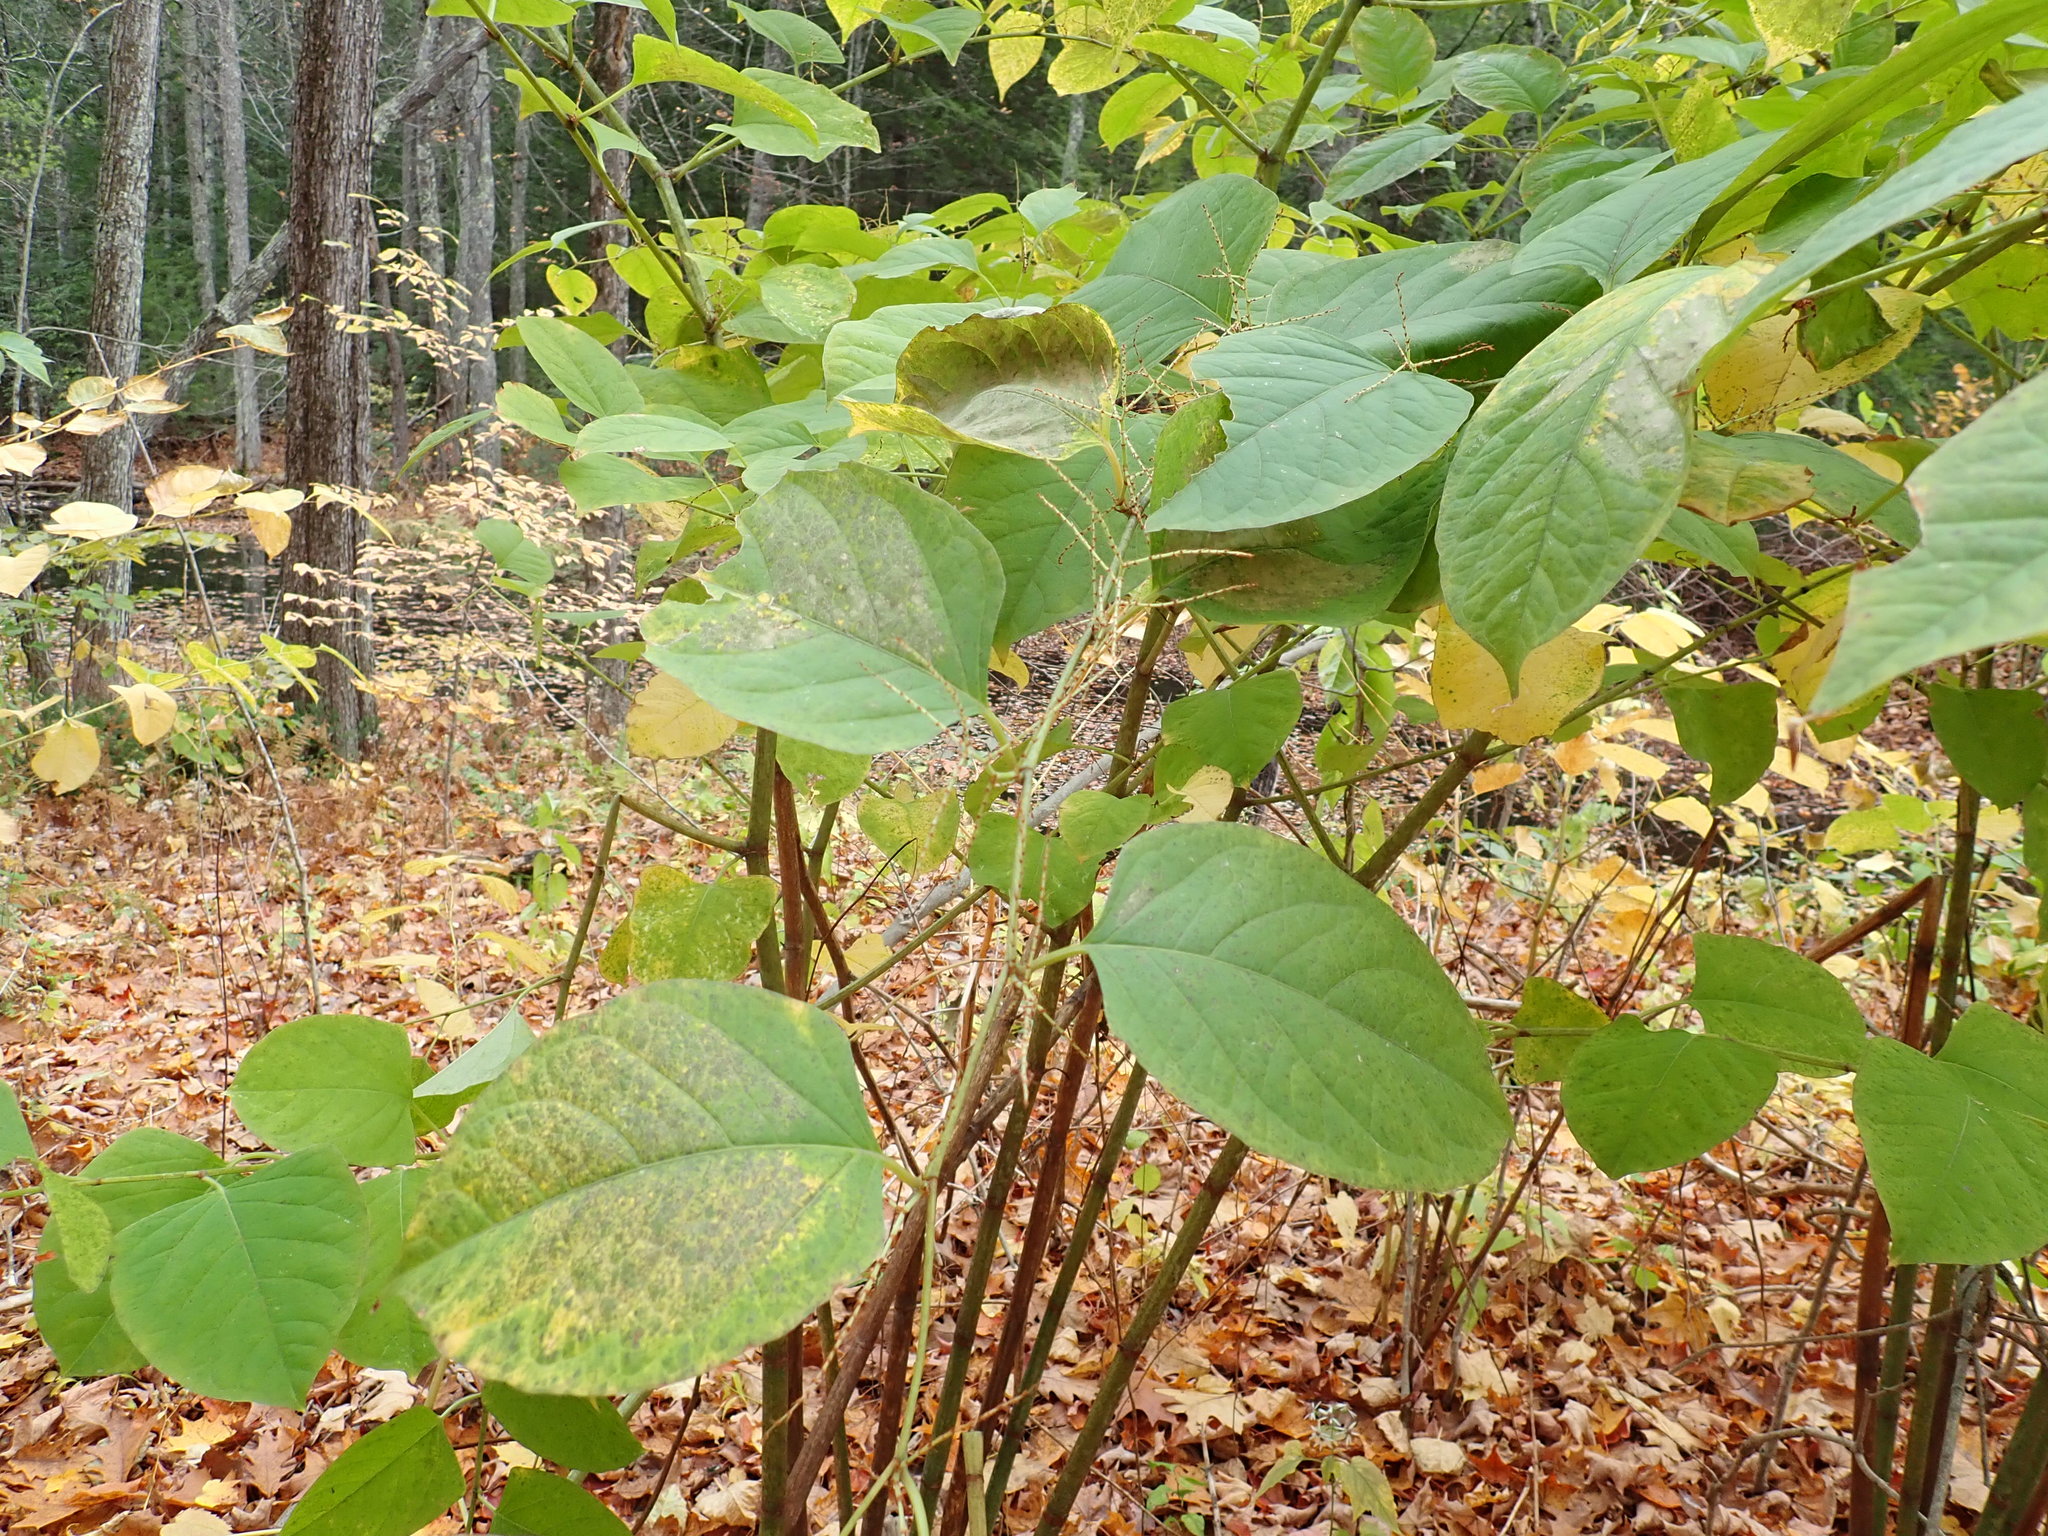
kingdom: Plantae
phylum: Tracheophyta
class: Magnoliopsida
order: Caryophyllales
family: Polygonaceae
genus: Reynoutria
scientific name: Reynoutria japonica
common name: Japanese knotweed
